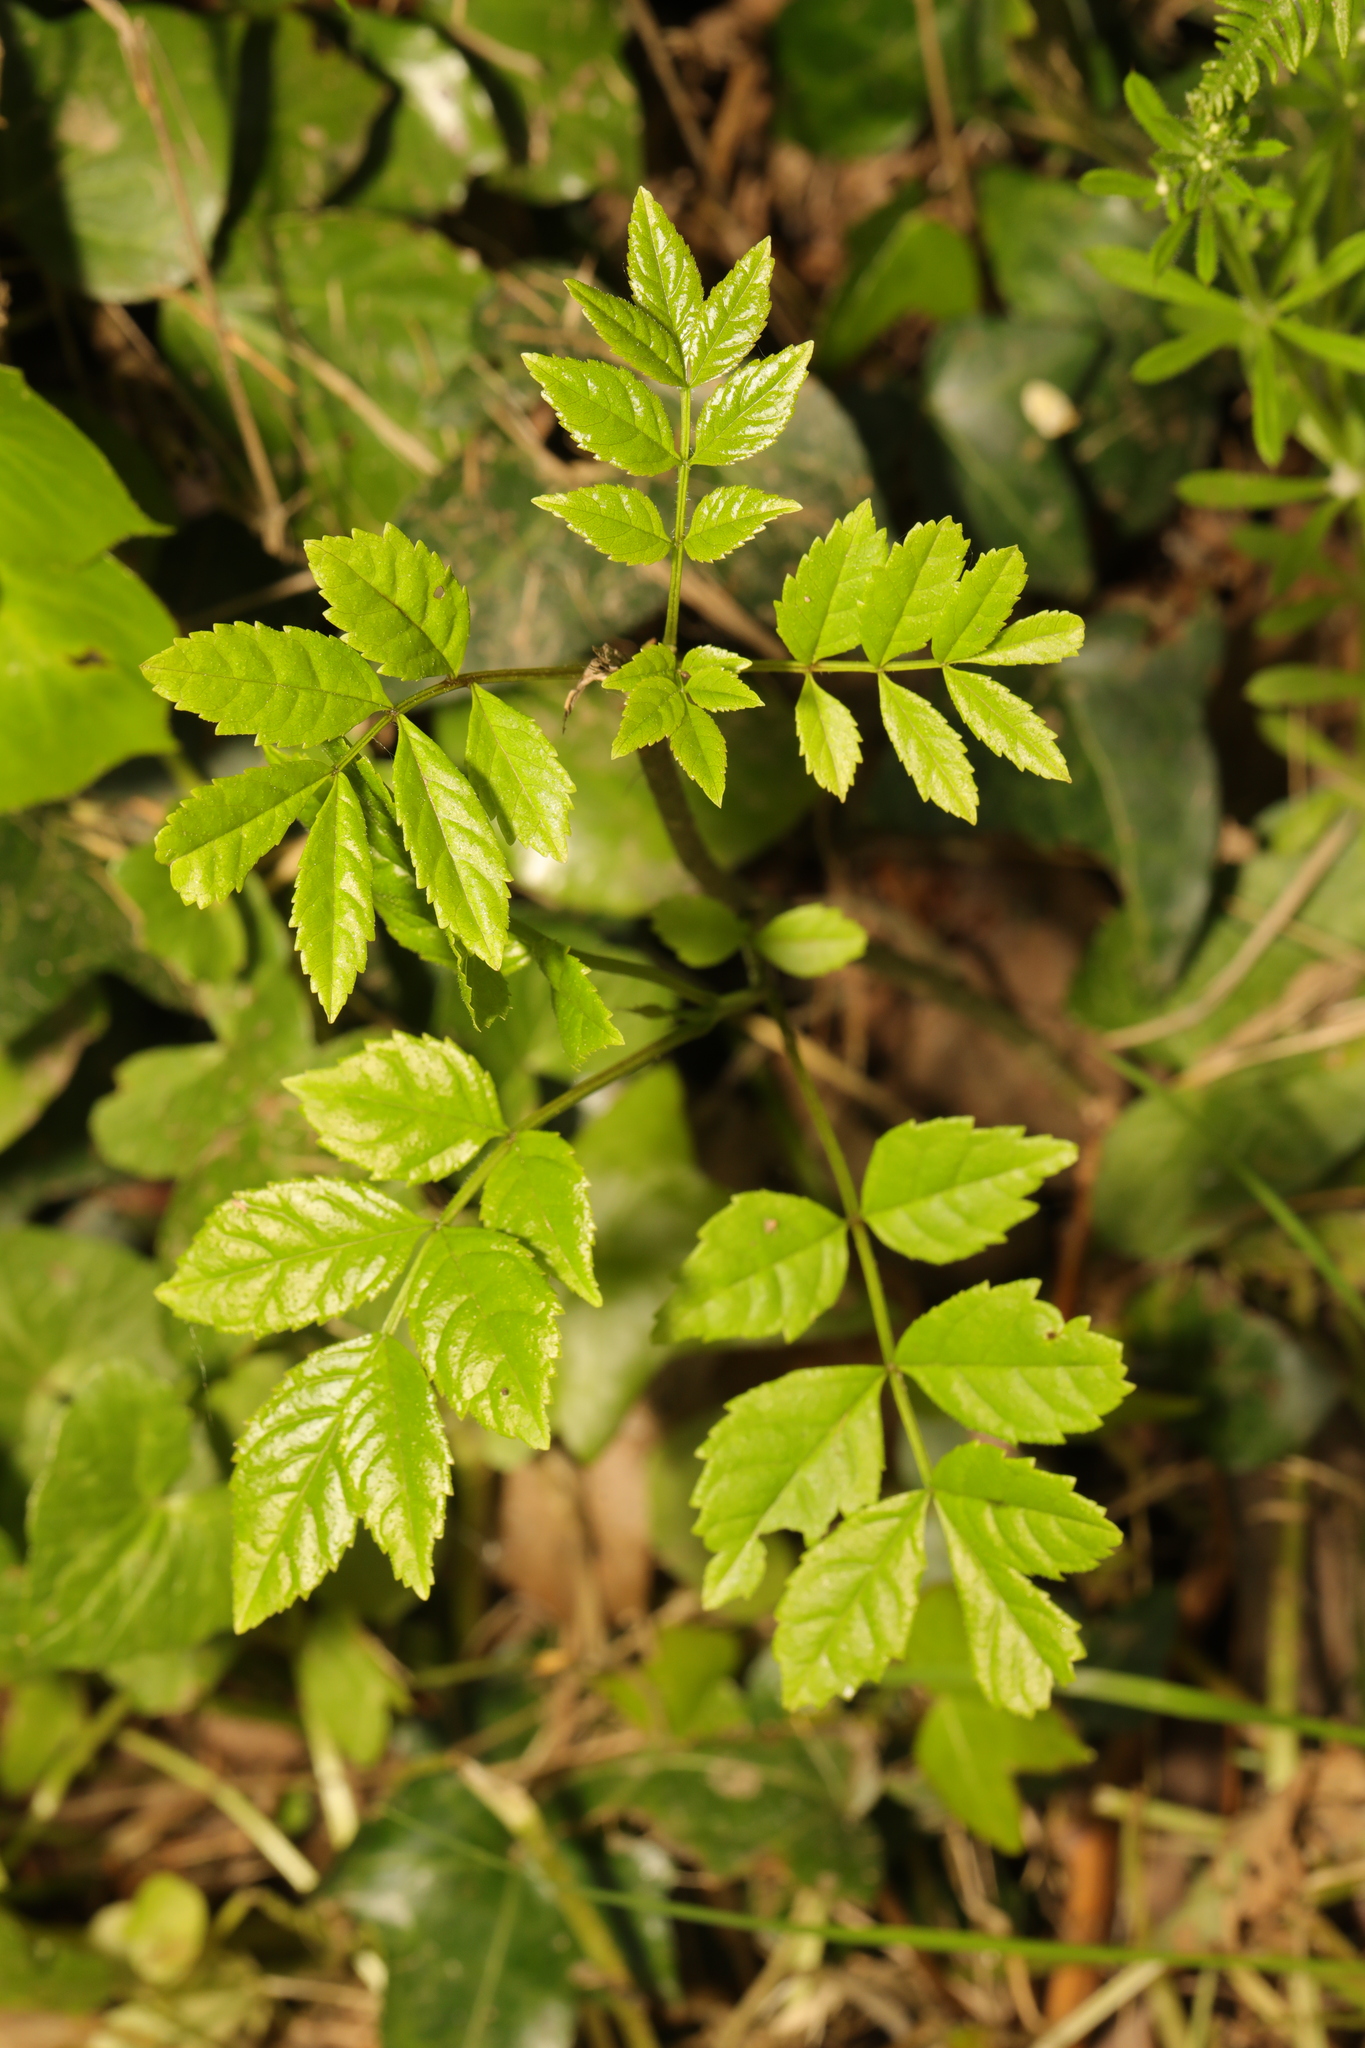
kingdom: Plantae
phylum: Tracheophyta
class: Magnoliopsida
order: Lamiales
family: Oleaceae
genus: Fraxinus
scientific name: Fraxinus excelsior
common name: European ash
